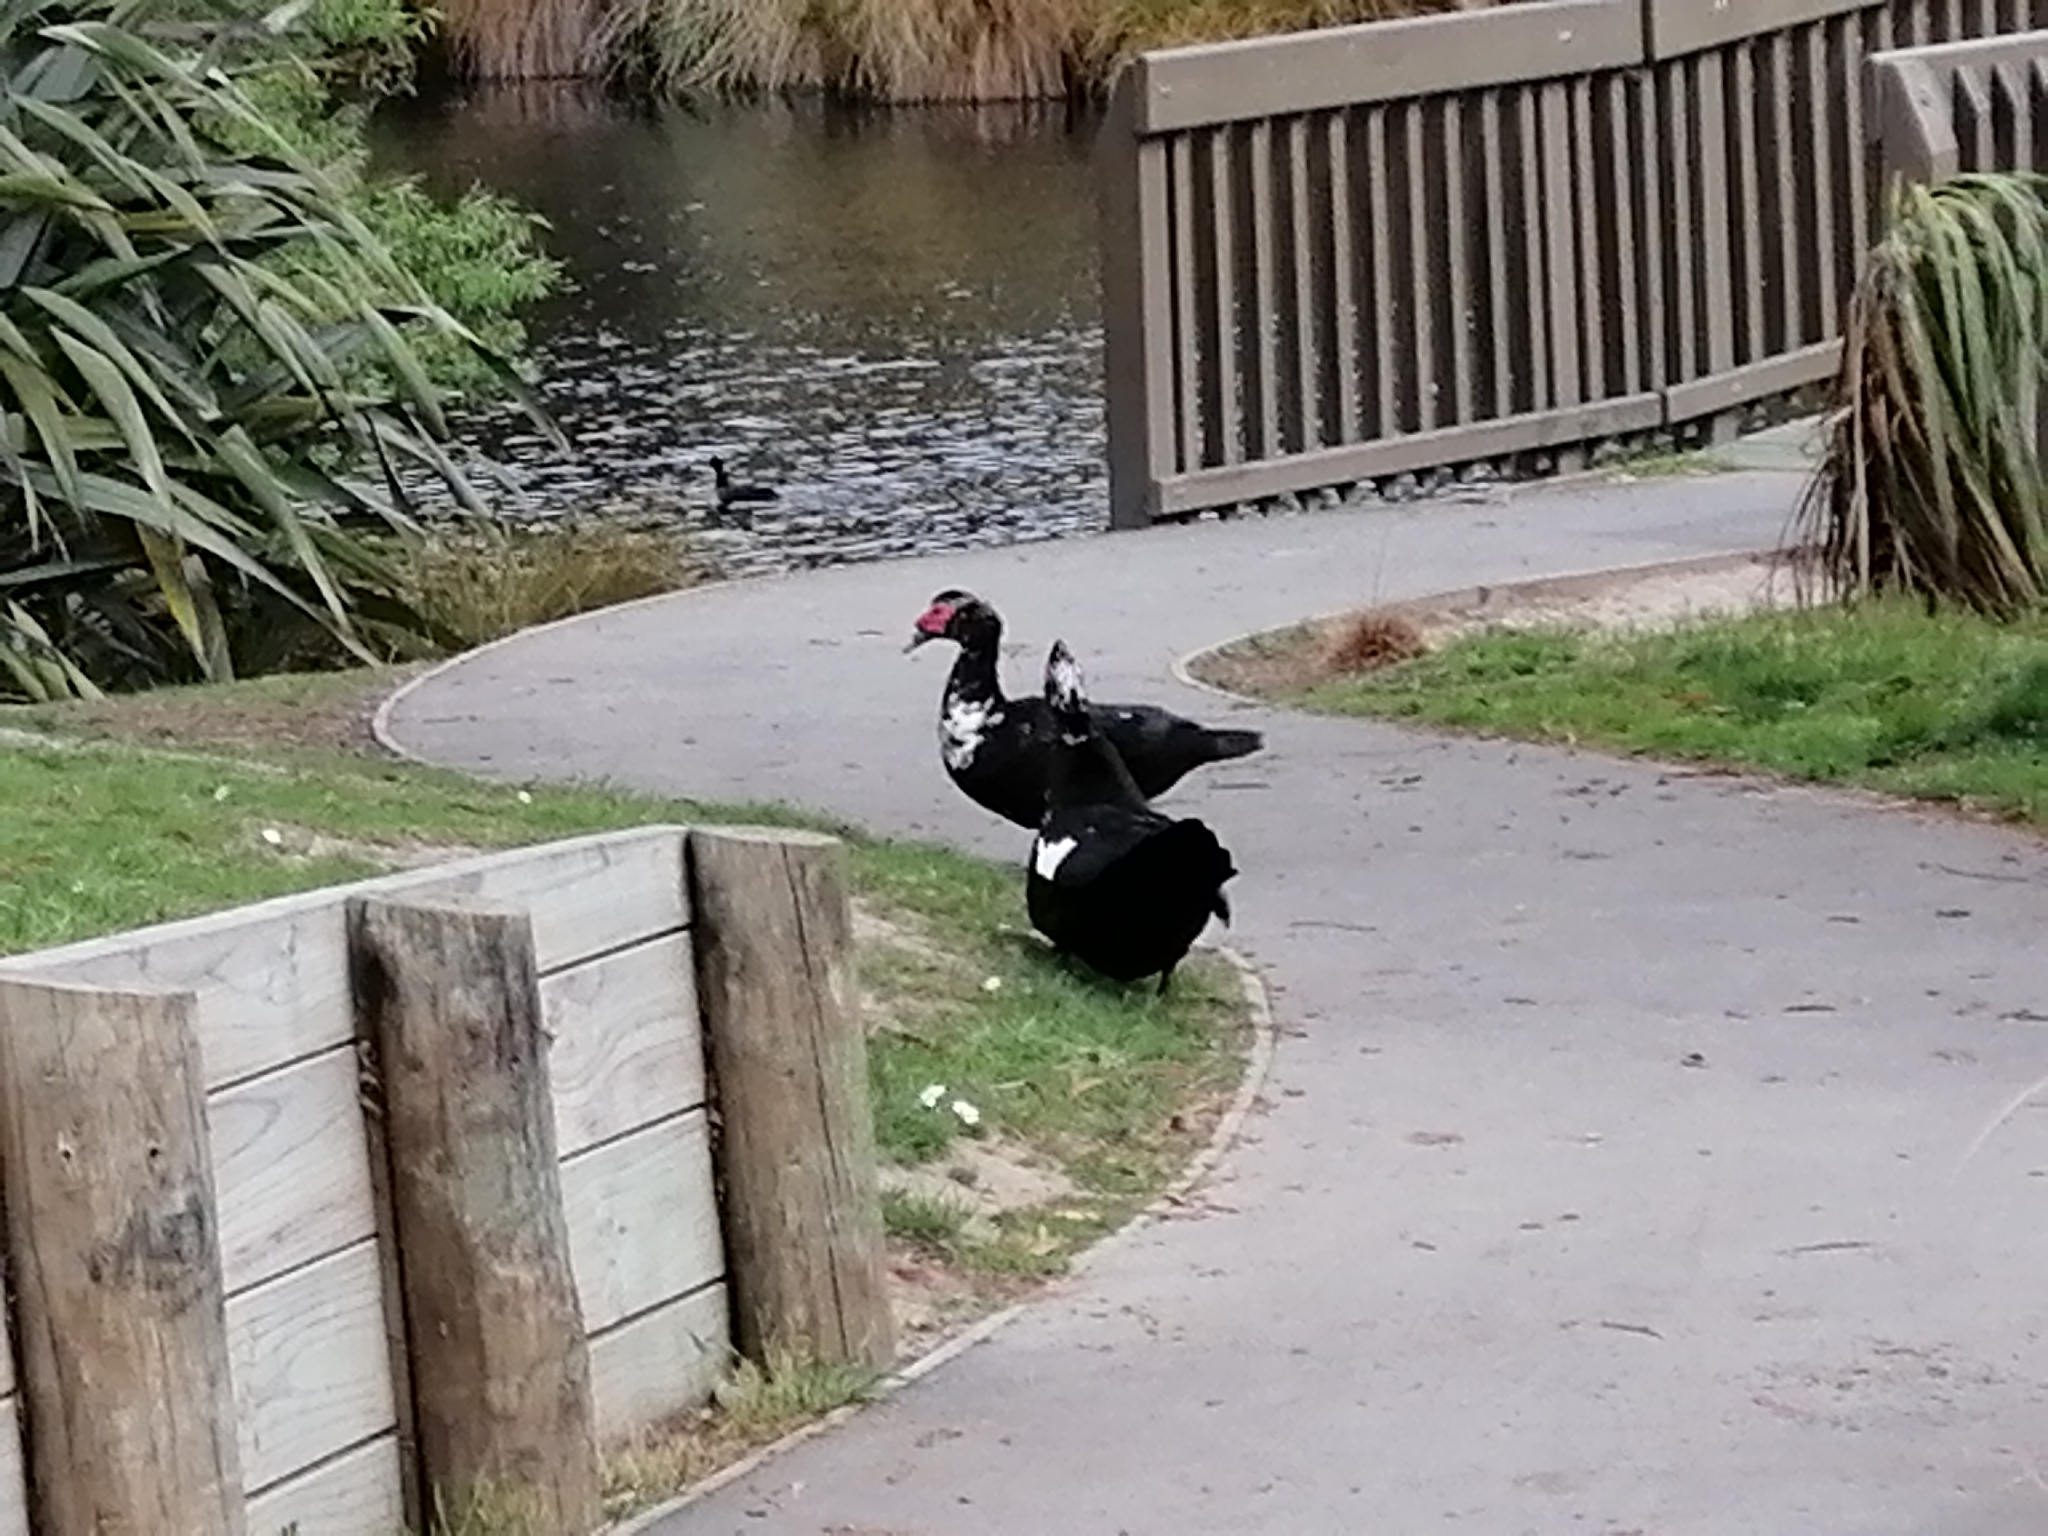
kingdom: Animalia
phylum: Chordata
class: Aves
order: Anseriformes
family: Anatidae
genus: Cairina
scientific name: Cairina moschata
